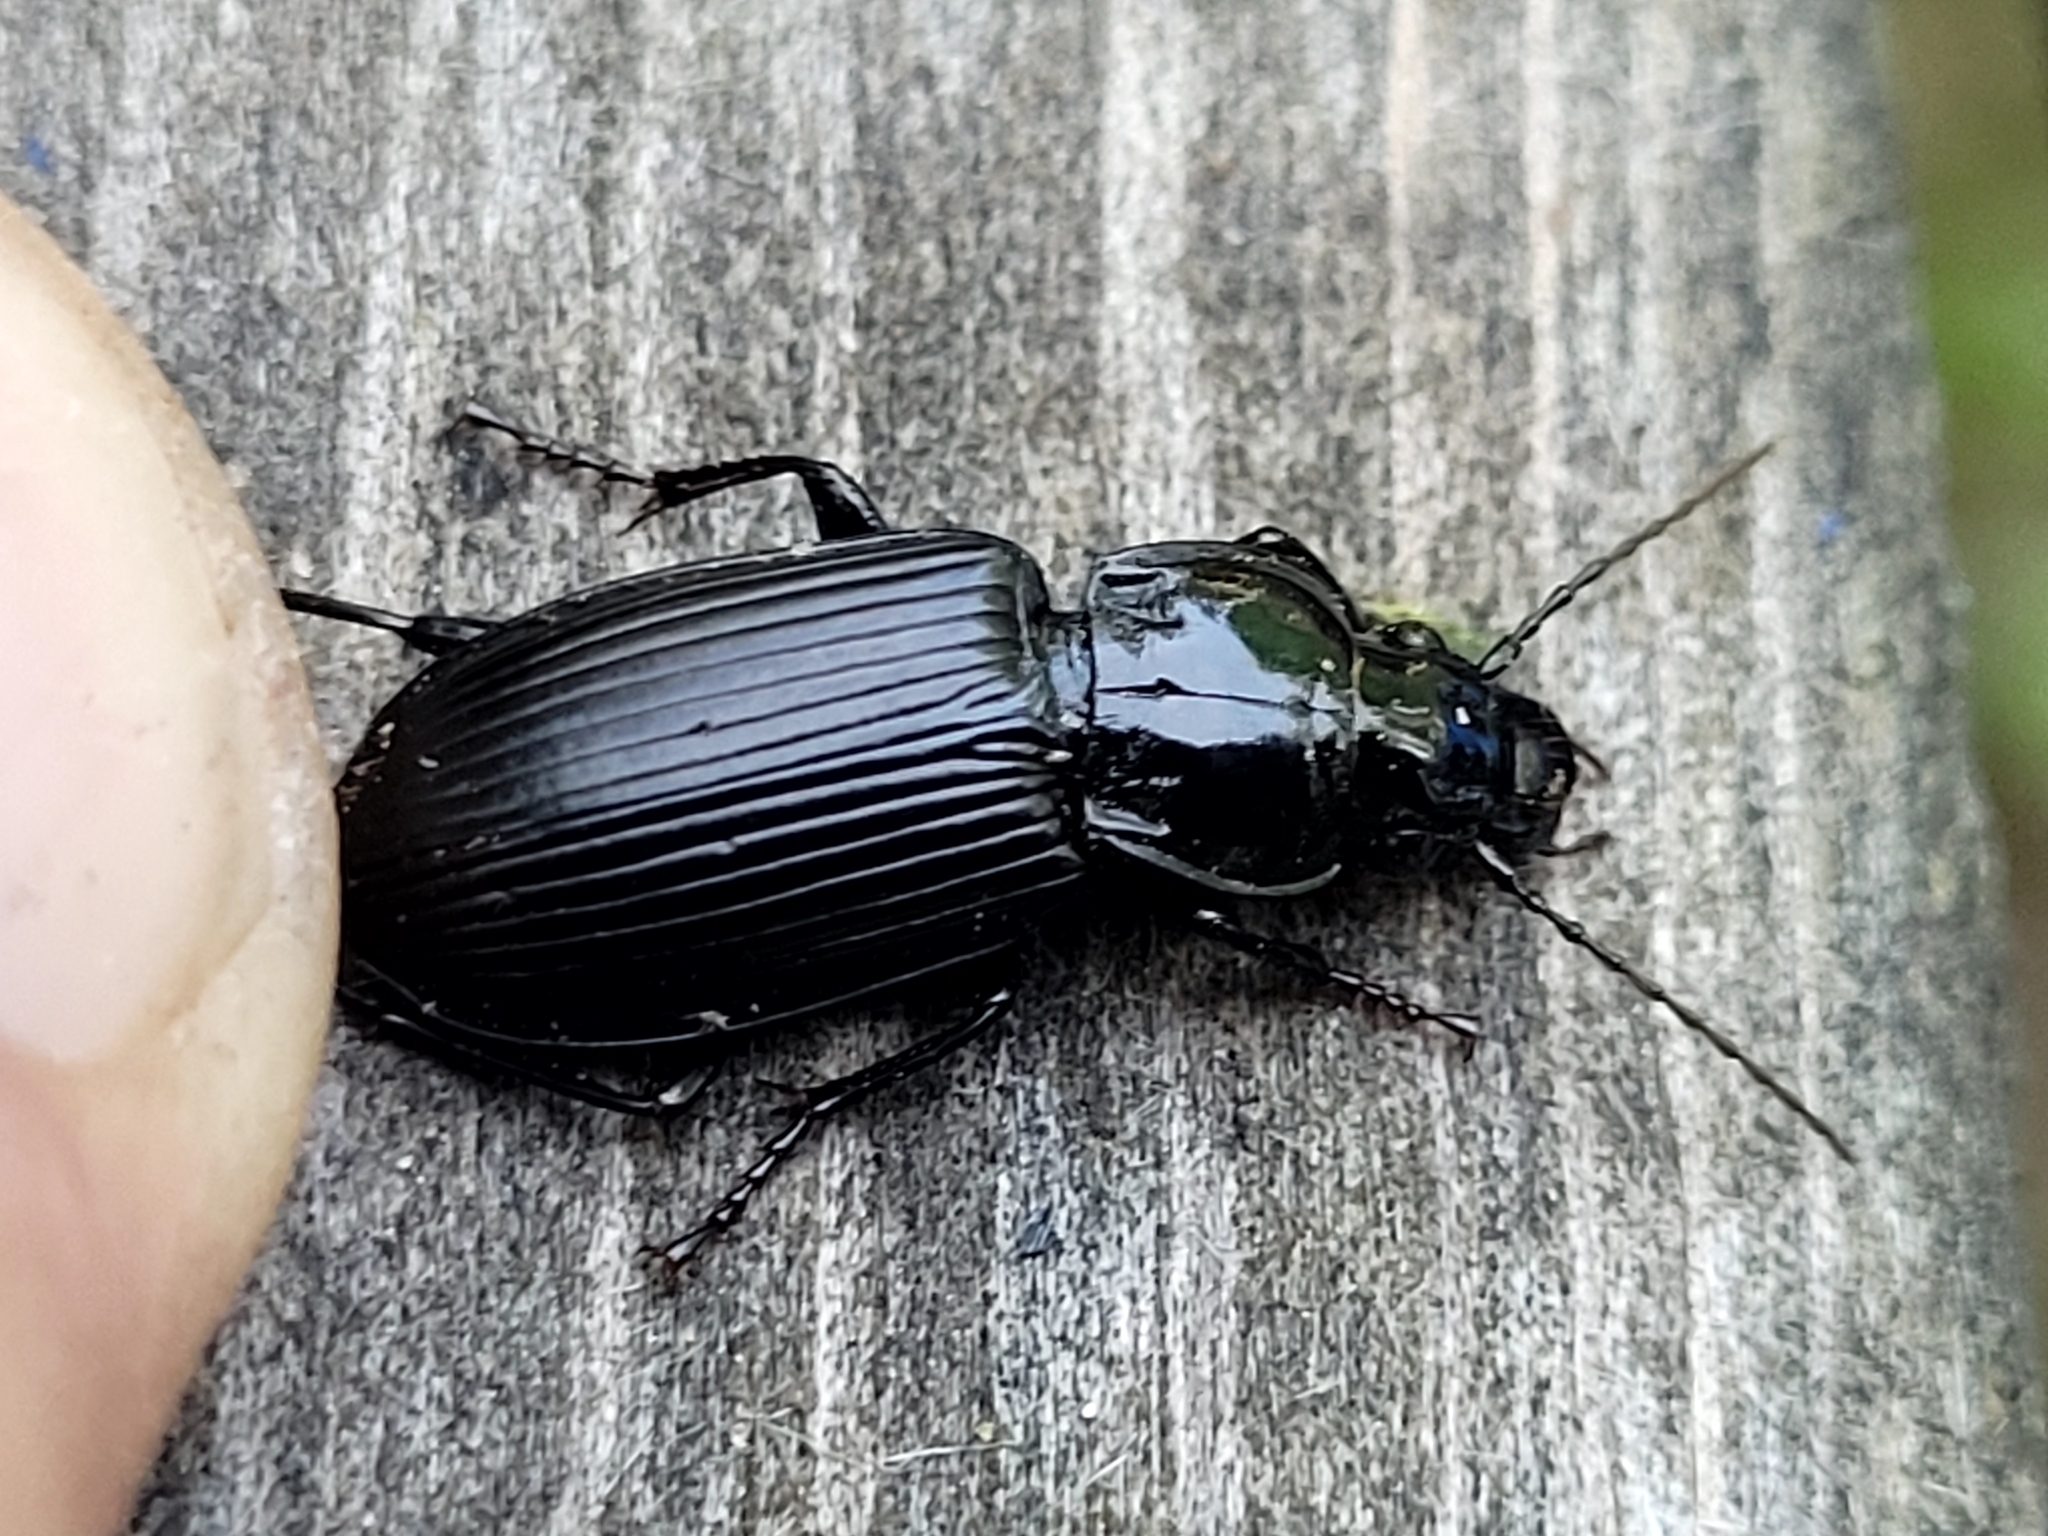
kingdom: Animalia
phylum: Arthropoda
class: Insecta
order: Coleoptera
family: Carabidae
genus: Pterostichus
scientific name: Pterostichus melanarius
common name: European dark harp ground beetle
